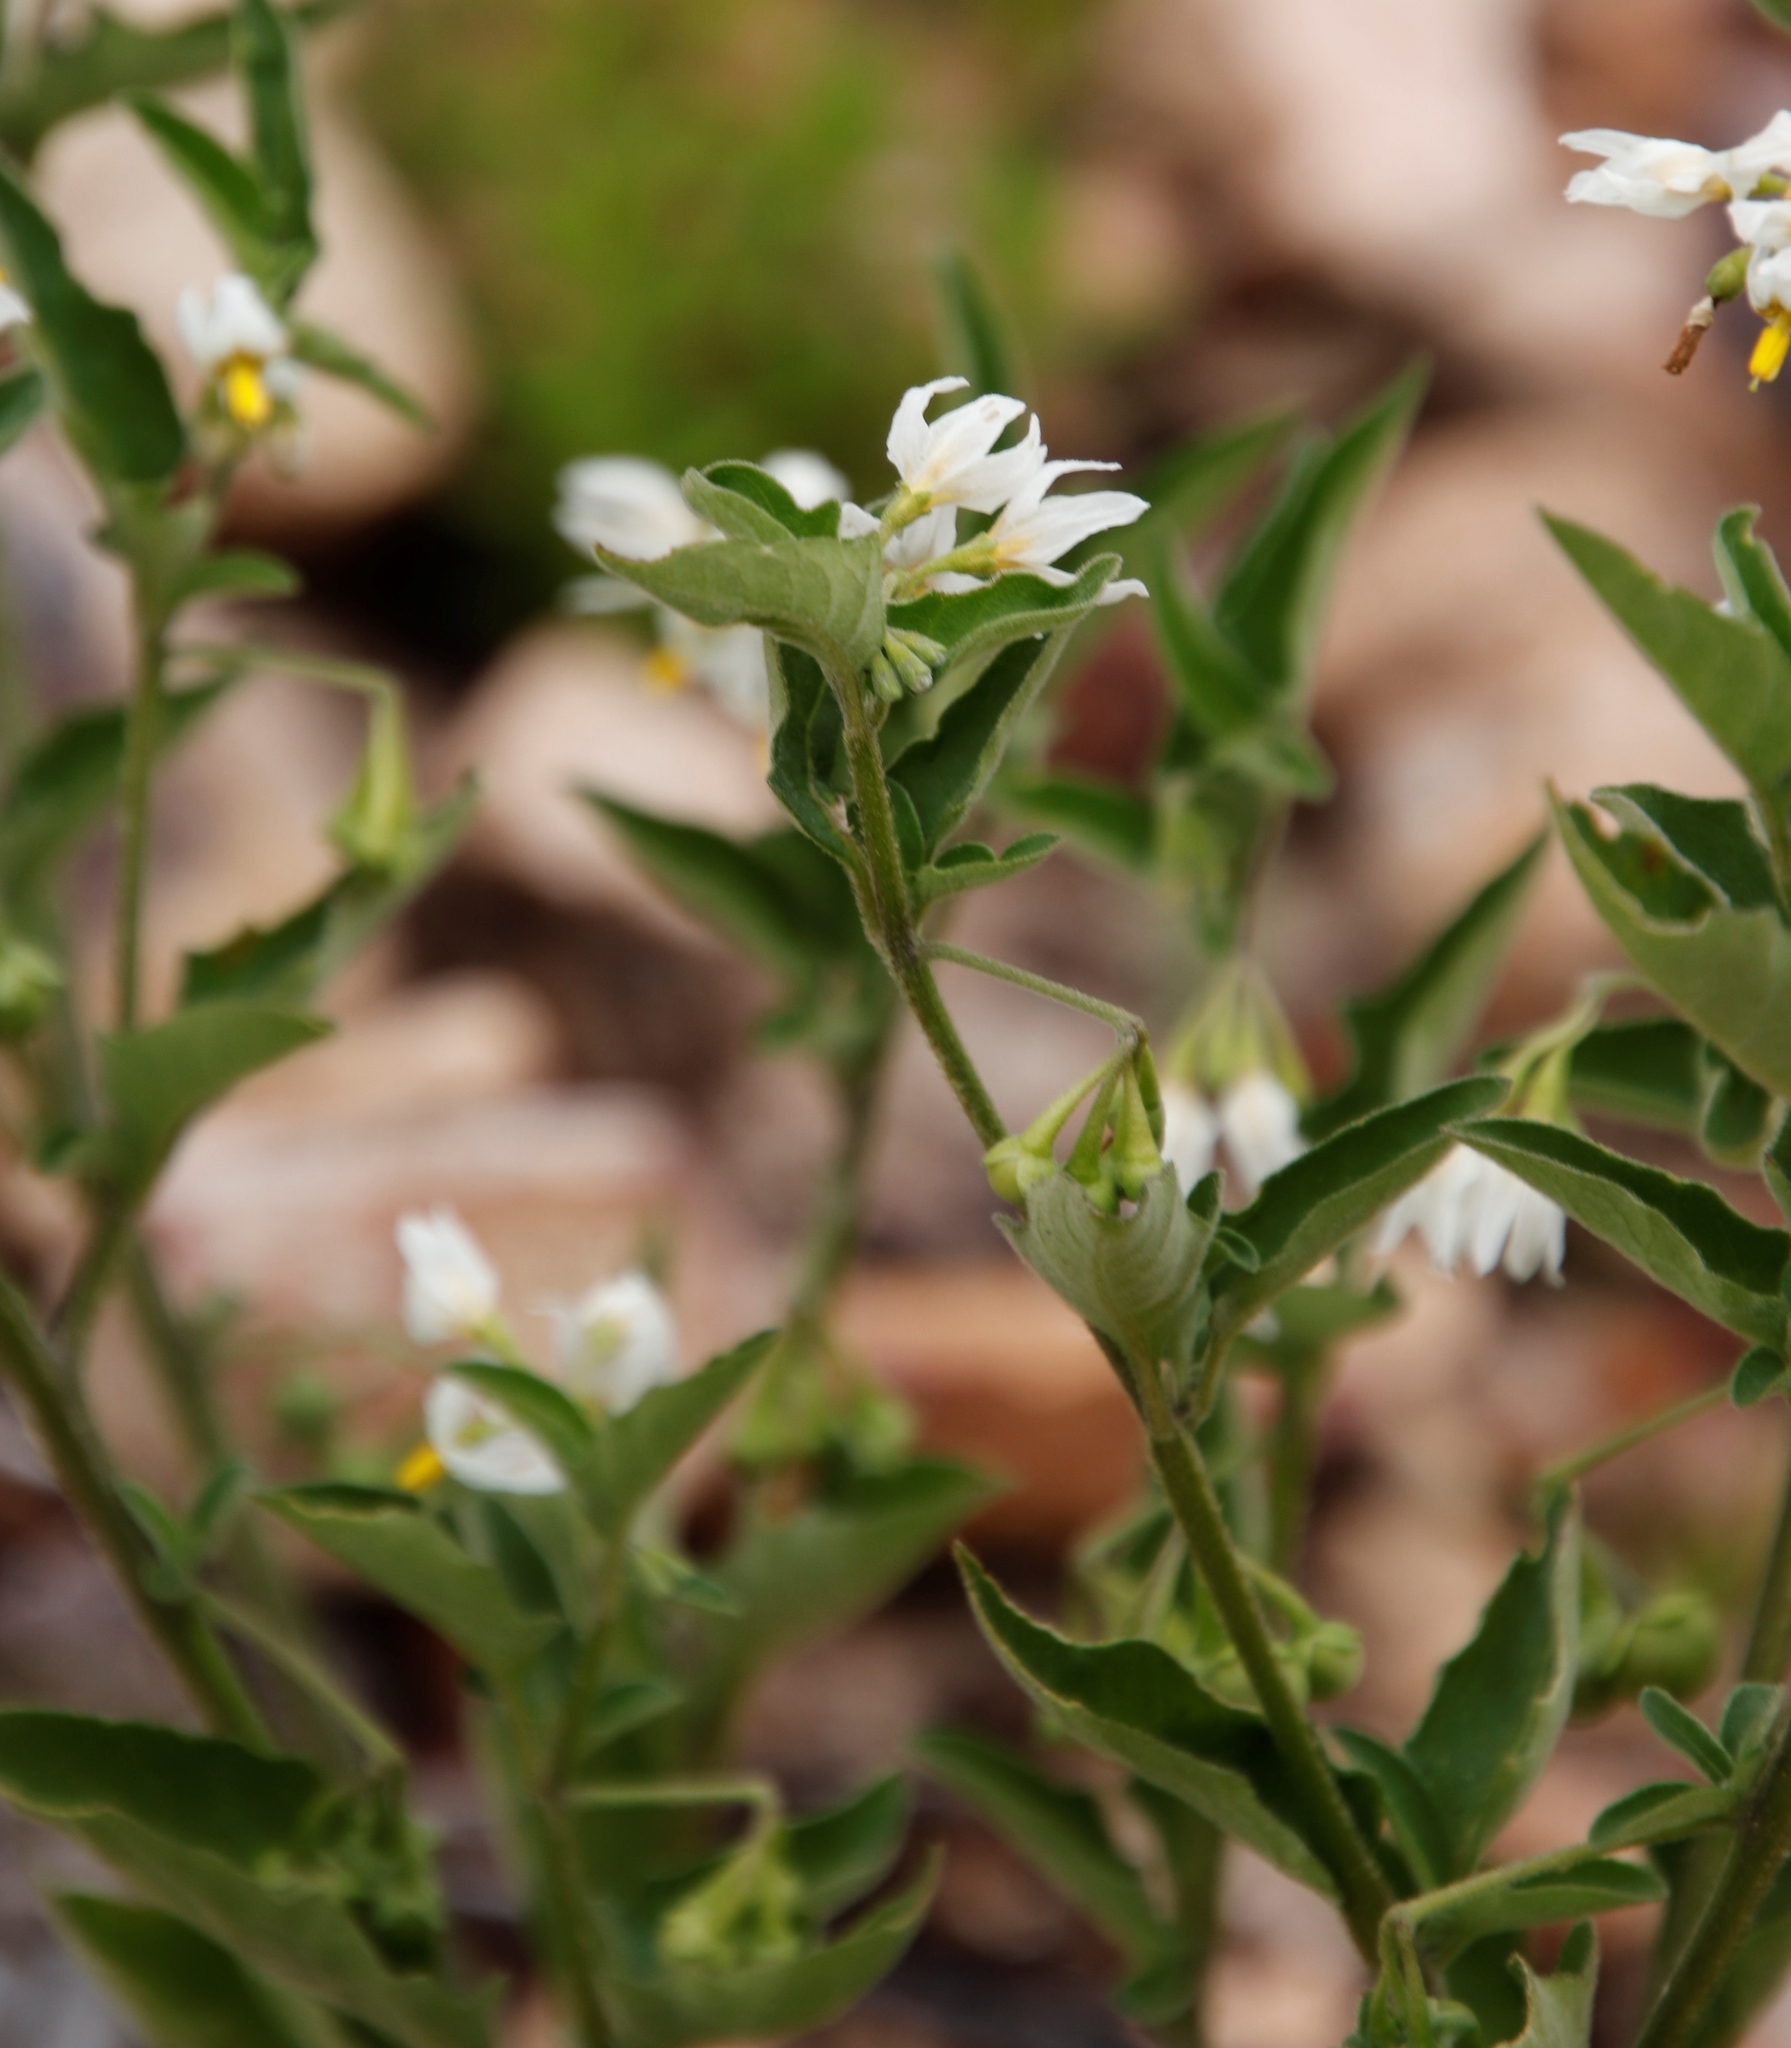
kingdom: Plantae
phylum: Tracheophyta
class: Magnoliopsida
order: Solanales
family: Solanaceae
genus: Solanum
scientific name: Solanum chenopodioides
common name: Tall nightshade
